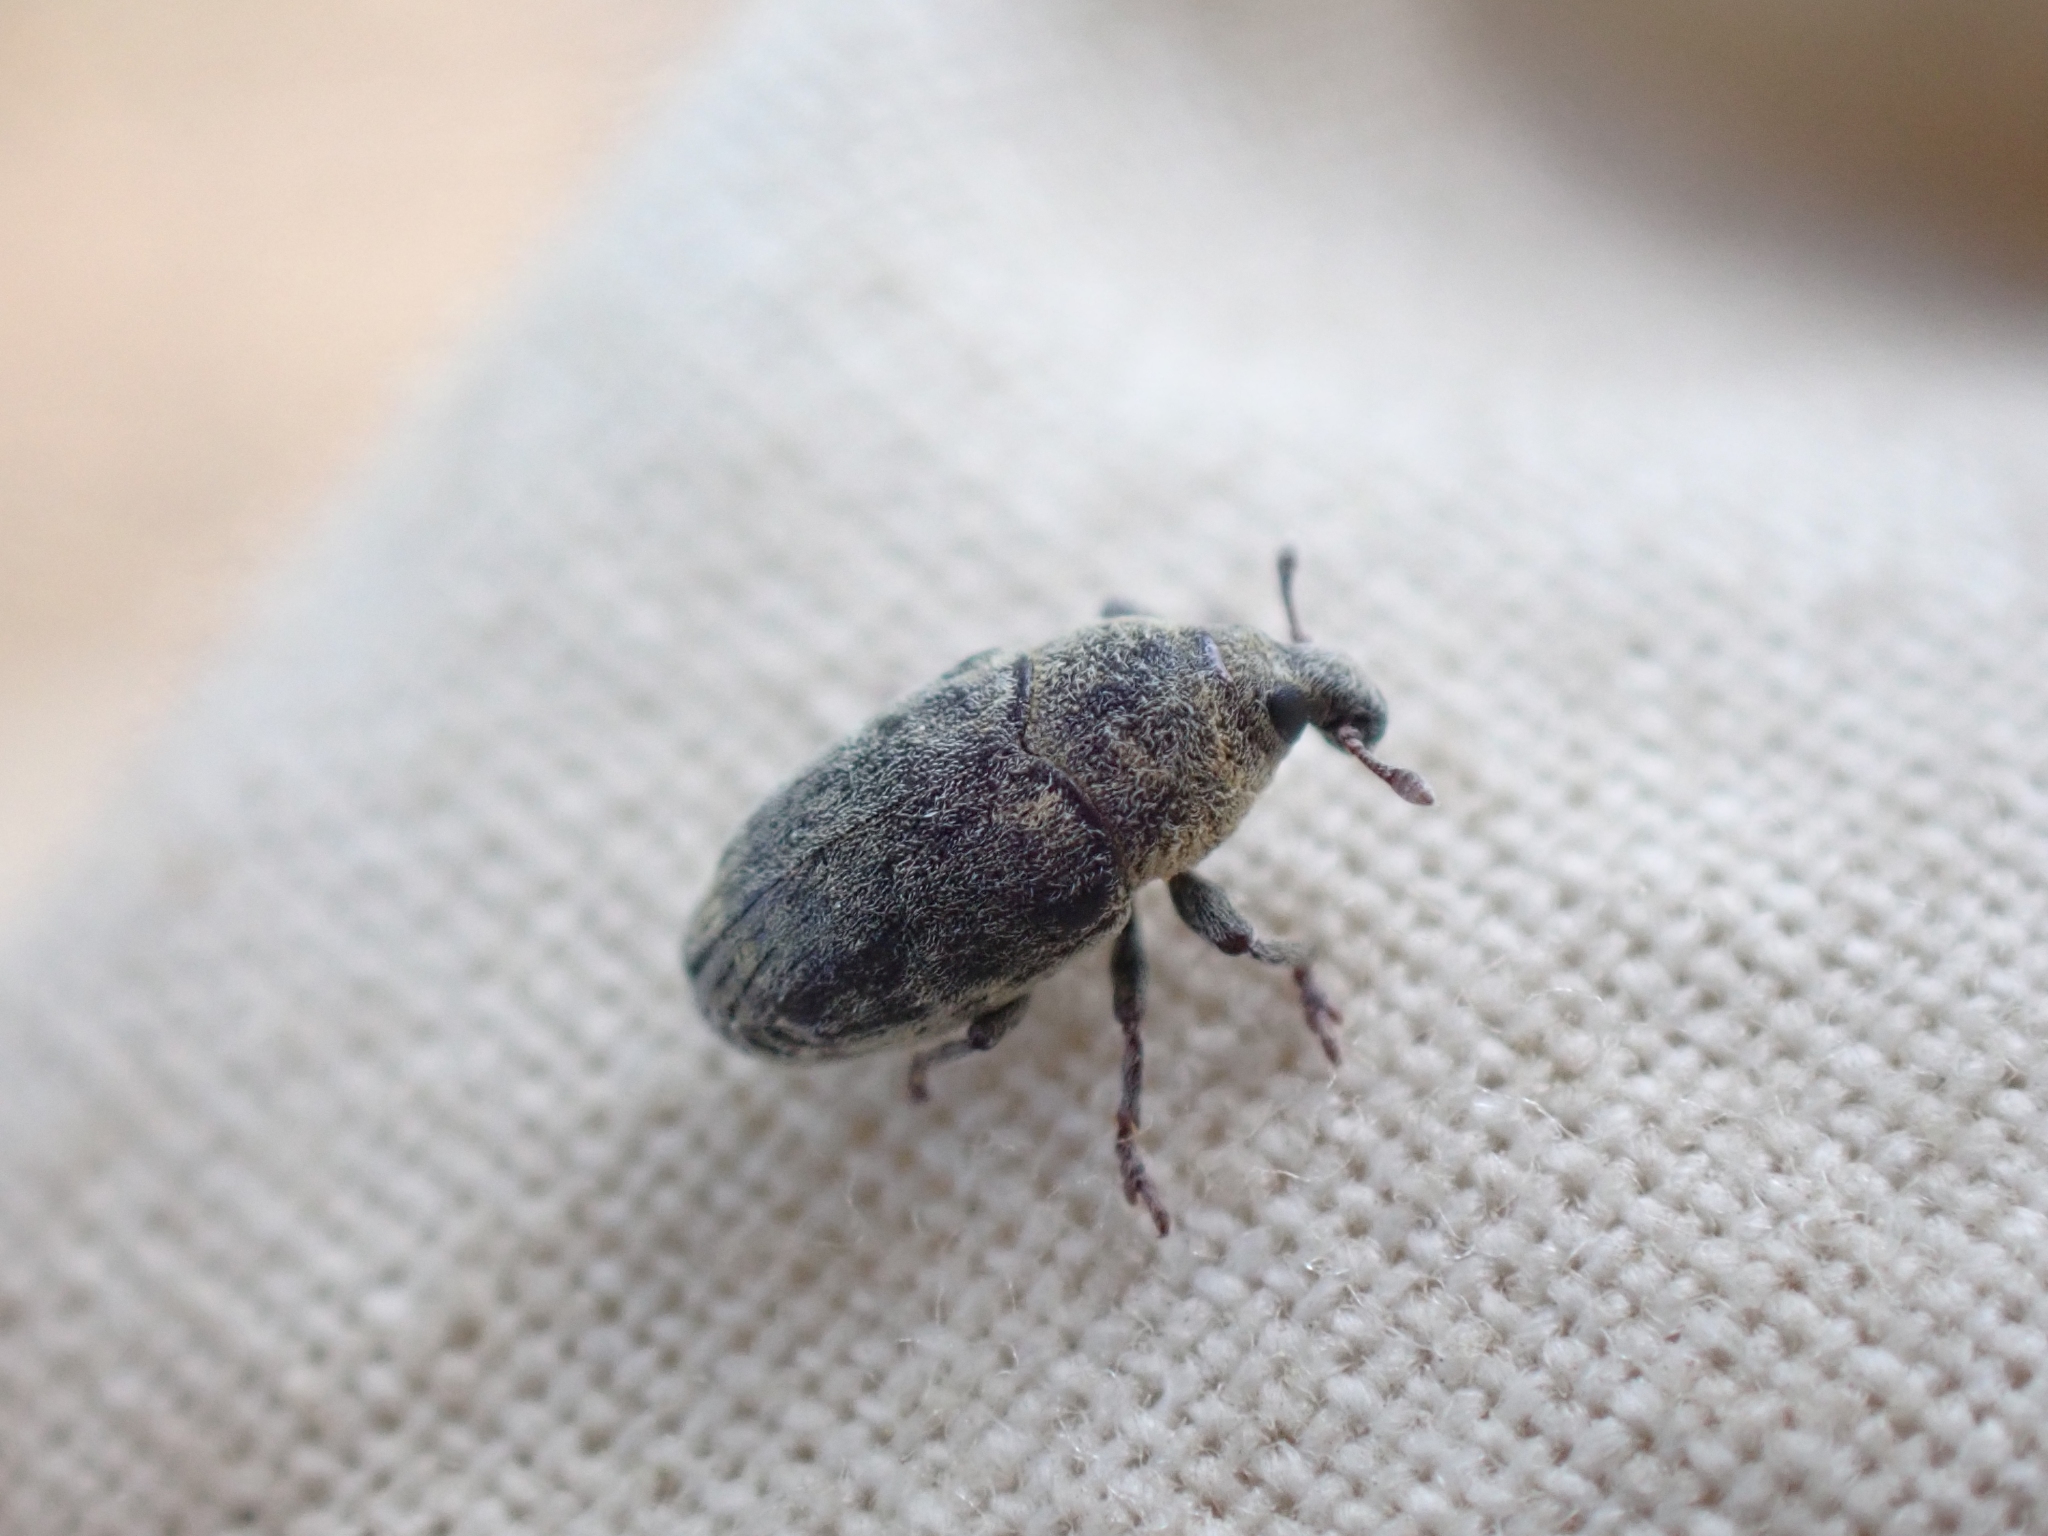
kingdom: Animalia
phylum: Arthropoda
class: Insecta
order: Coleoptera
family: Curculionidae
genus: Larinus
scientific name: Larinus minutus
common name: Weevil
